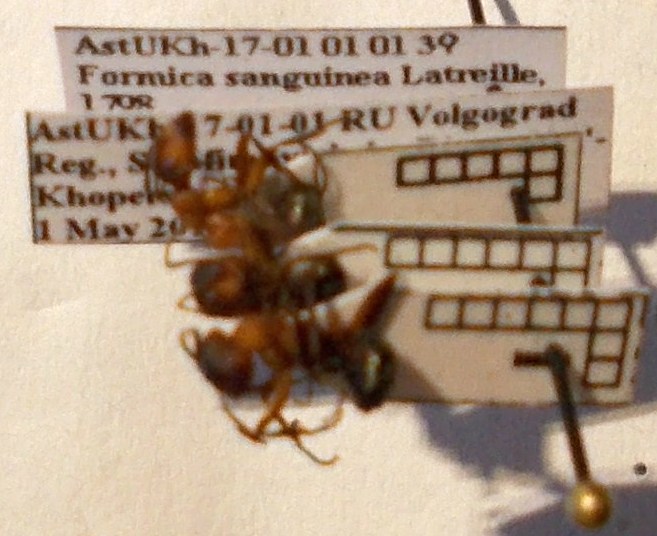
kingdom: Animalia
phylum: Arthropoda
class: Insecta
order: Hymenoptera
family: Formicidae
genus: Formica
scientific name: Formica sanguinea
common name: Blood-red ant
